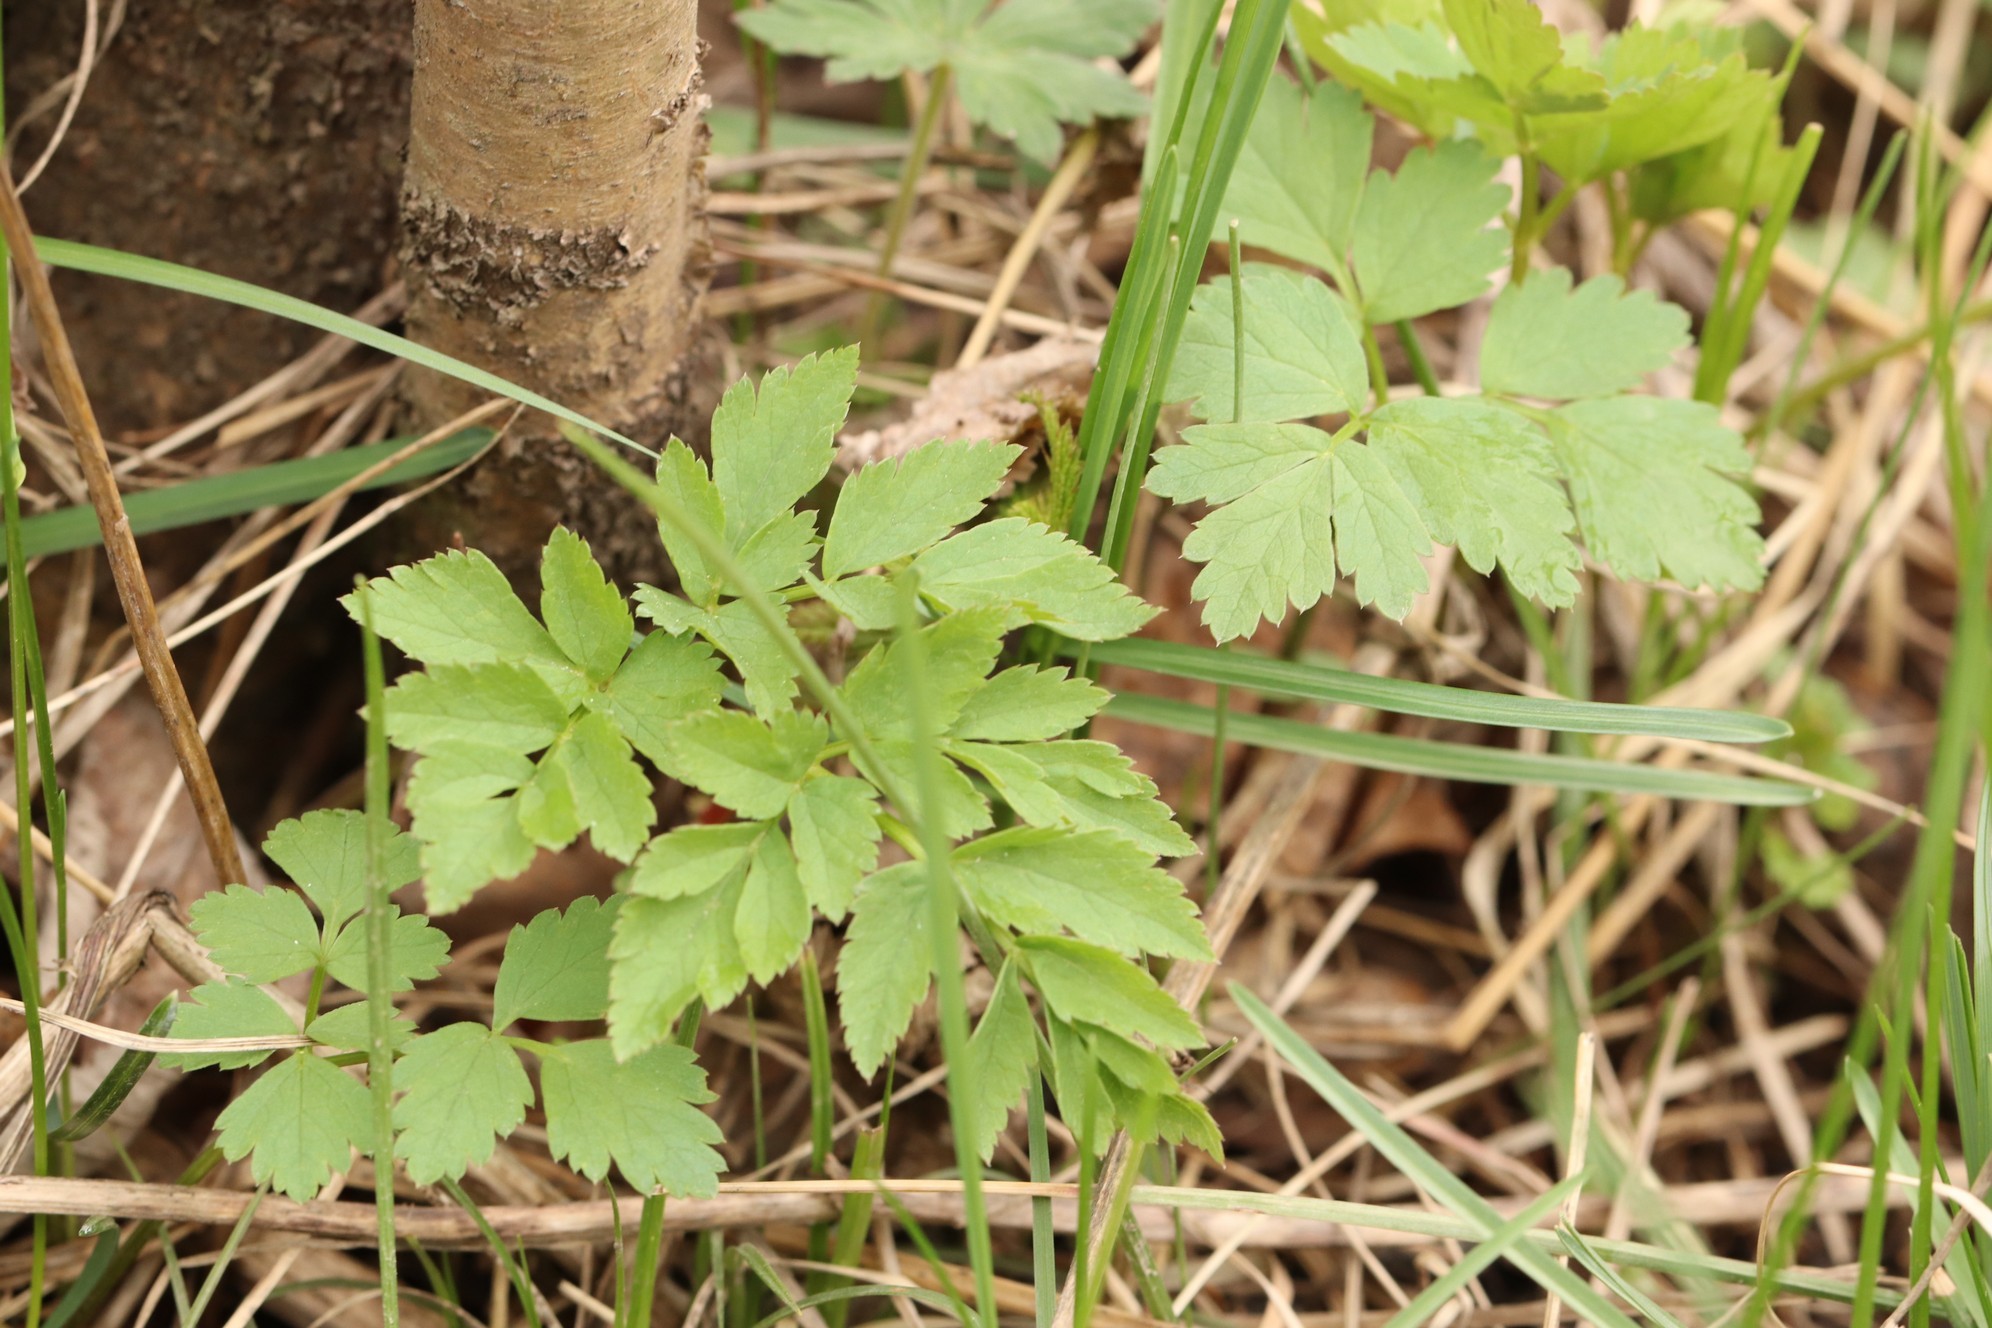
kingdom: Plantae
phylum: Tracheophyta
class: Magnoliopsida
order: Apiales
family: Apiaceae
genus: Aegopodium
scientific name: Aegopodium alpestre
